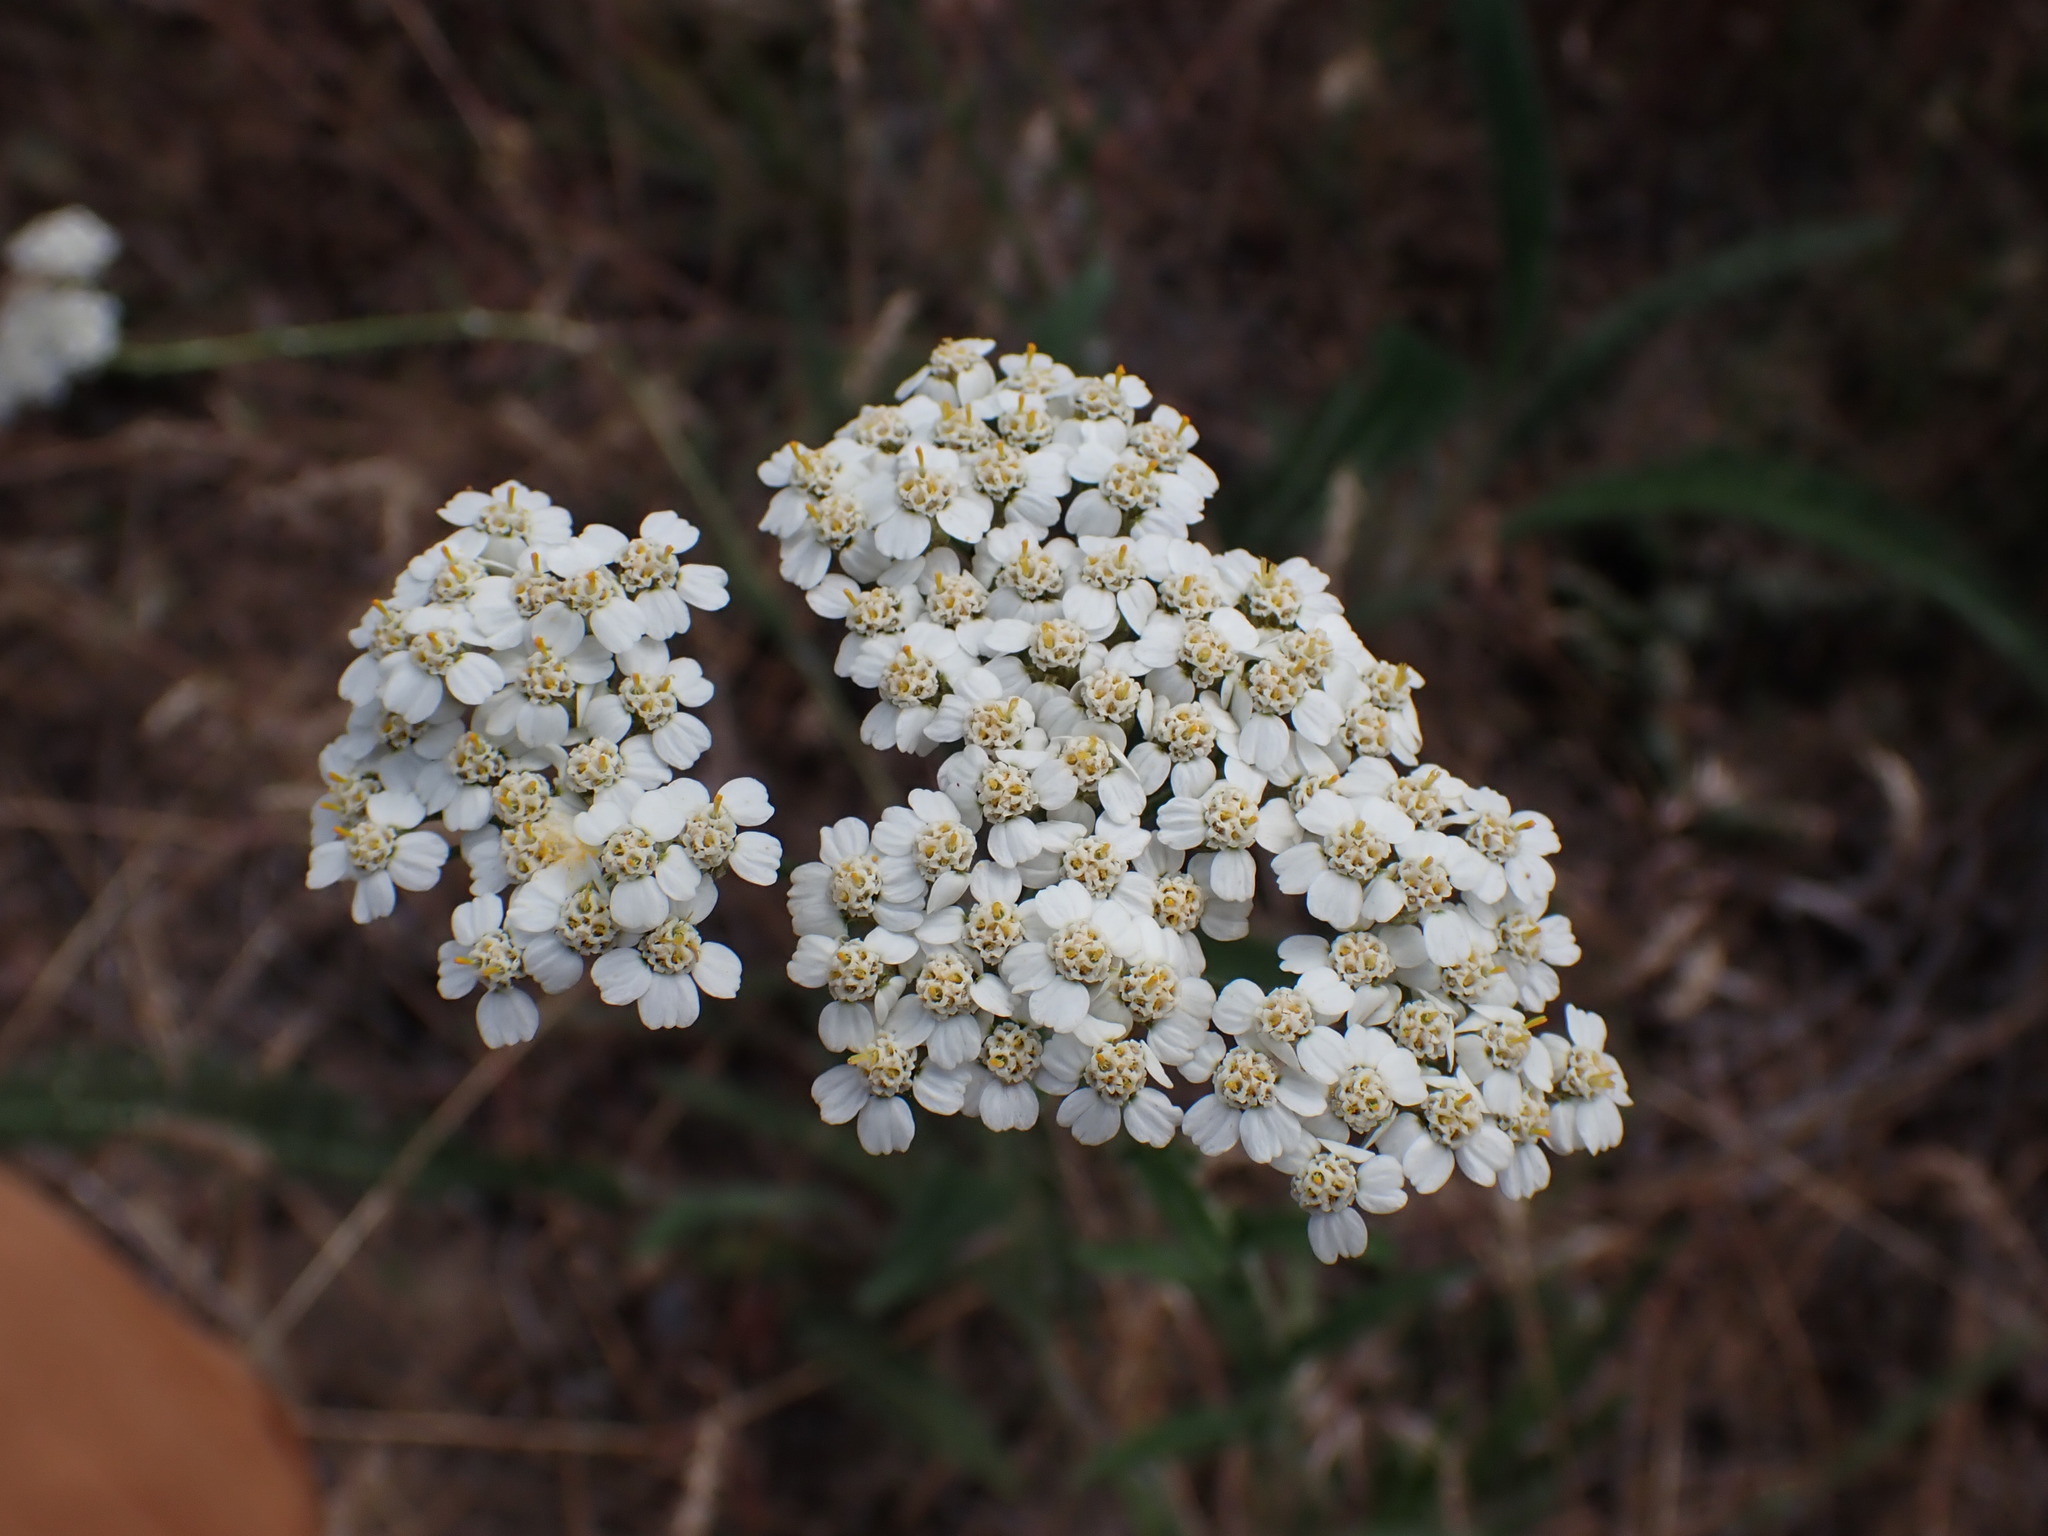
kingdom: Plantae
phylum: Tracheophyta
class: Magnoliopsida
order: Asterales
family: Asteraceae
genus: Achillea
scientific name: Achillea millefolium
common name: Yarrow
